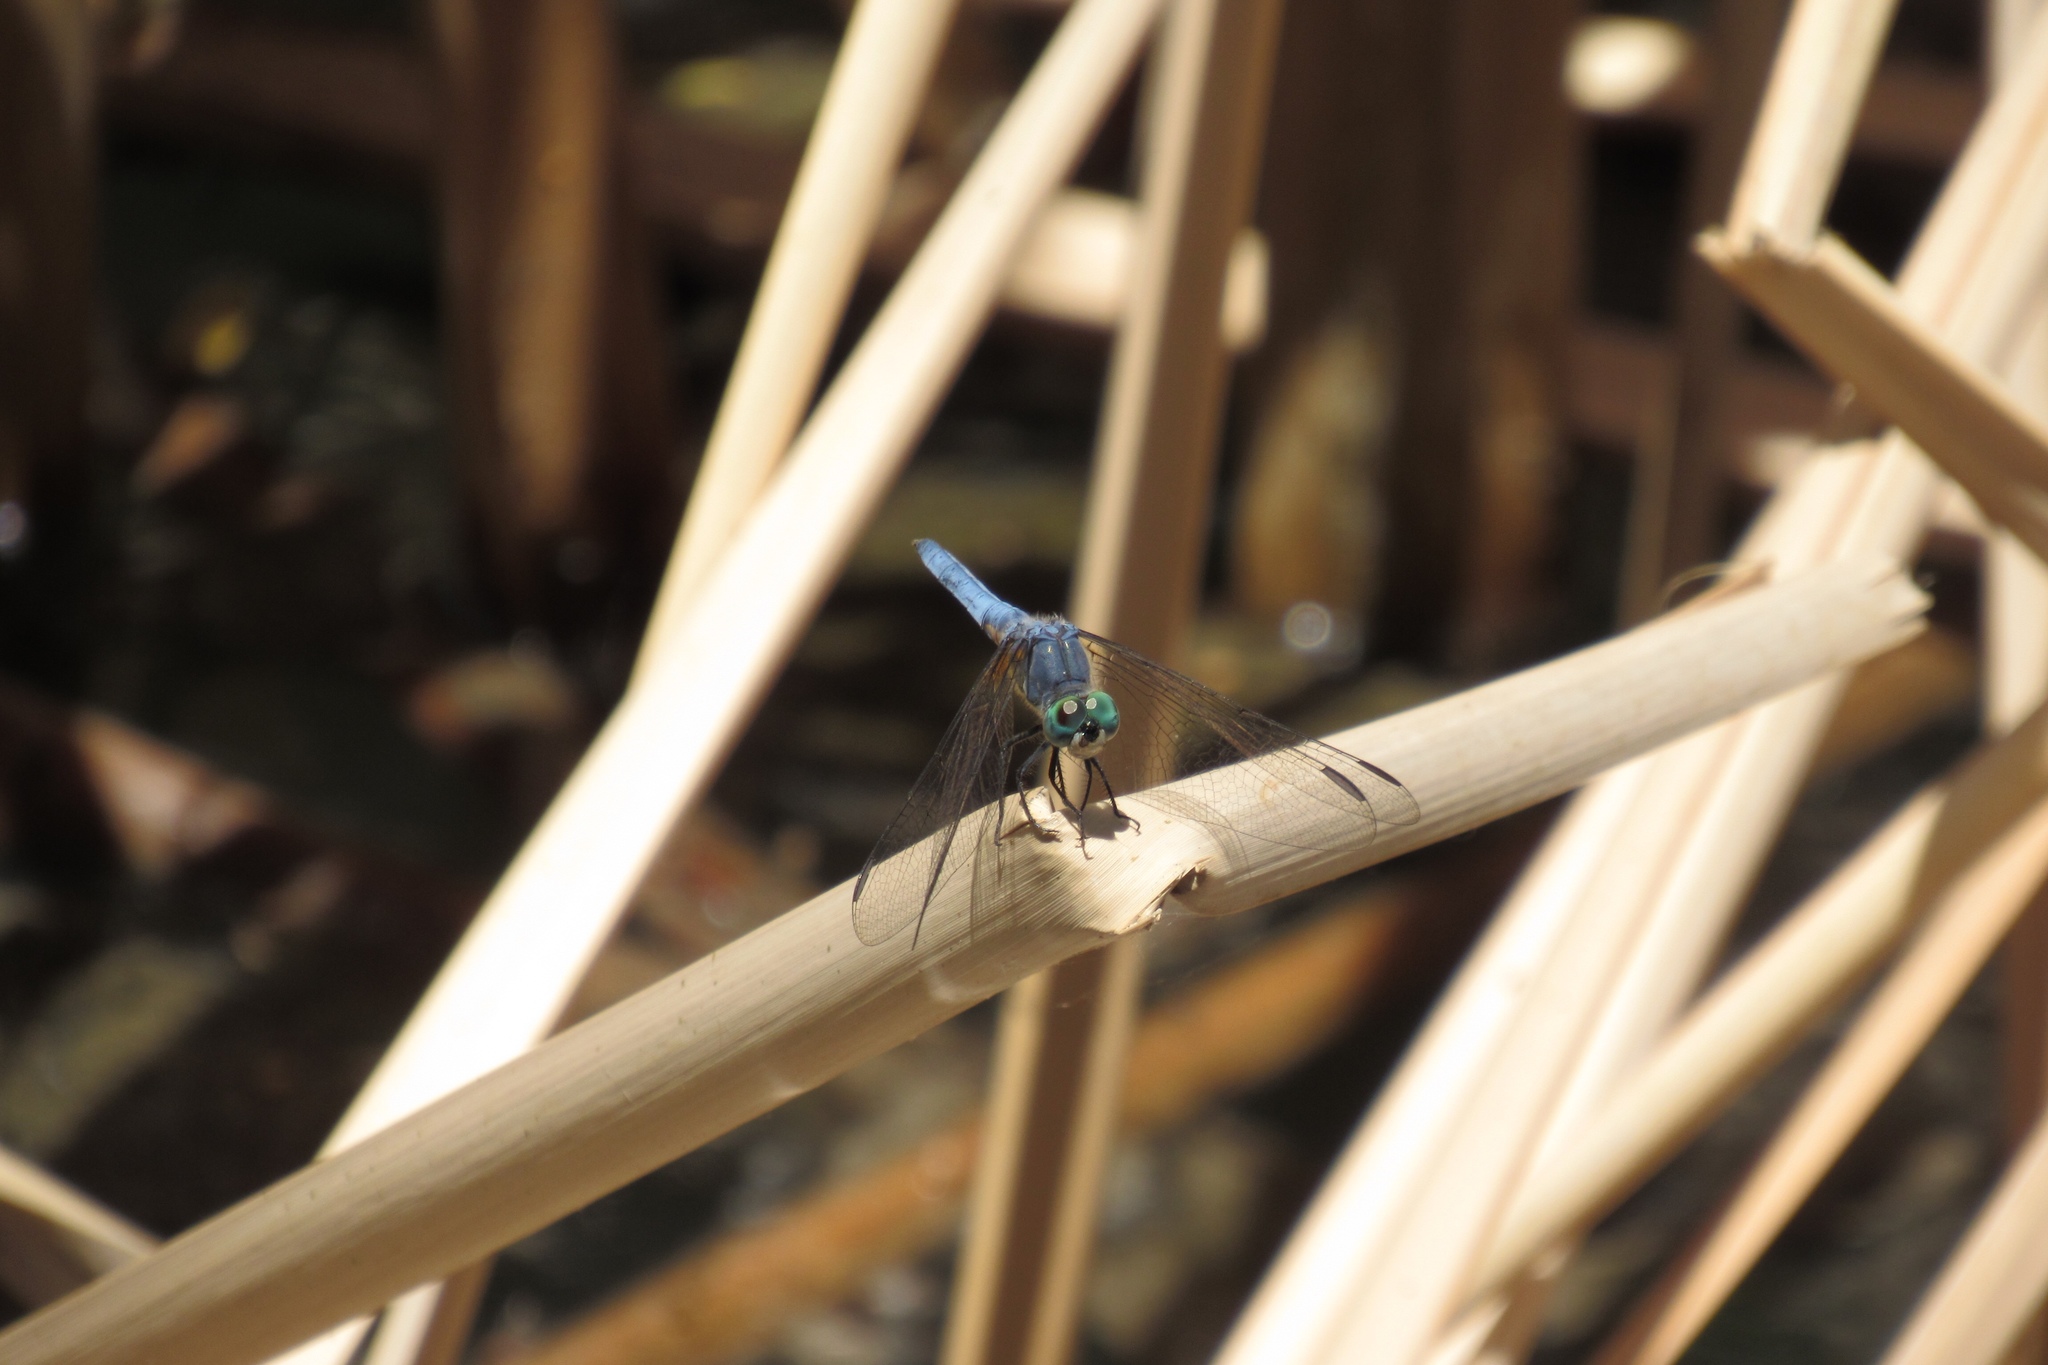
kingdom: Animalia
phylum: Arthropoda
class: Insecta
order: Odonata
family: Libellulidae
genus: Pachydiplax
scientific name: Pachydiplax longipennis
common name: Blue dasher
